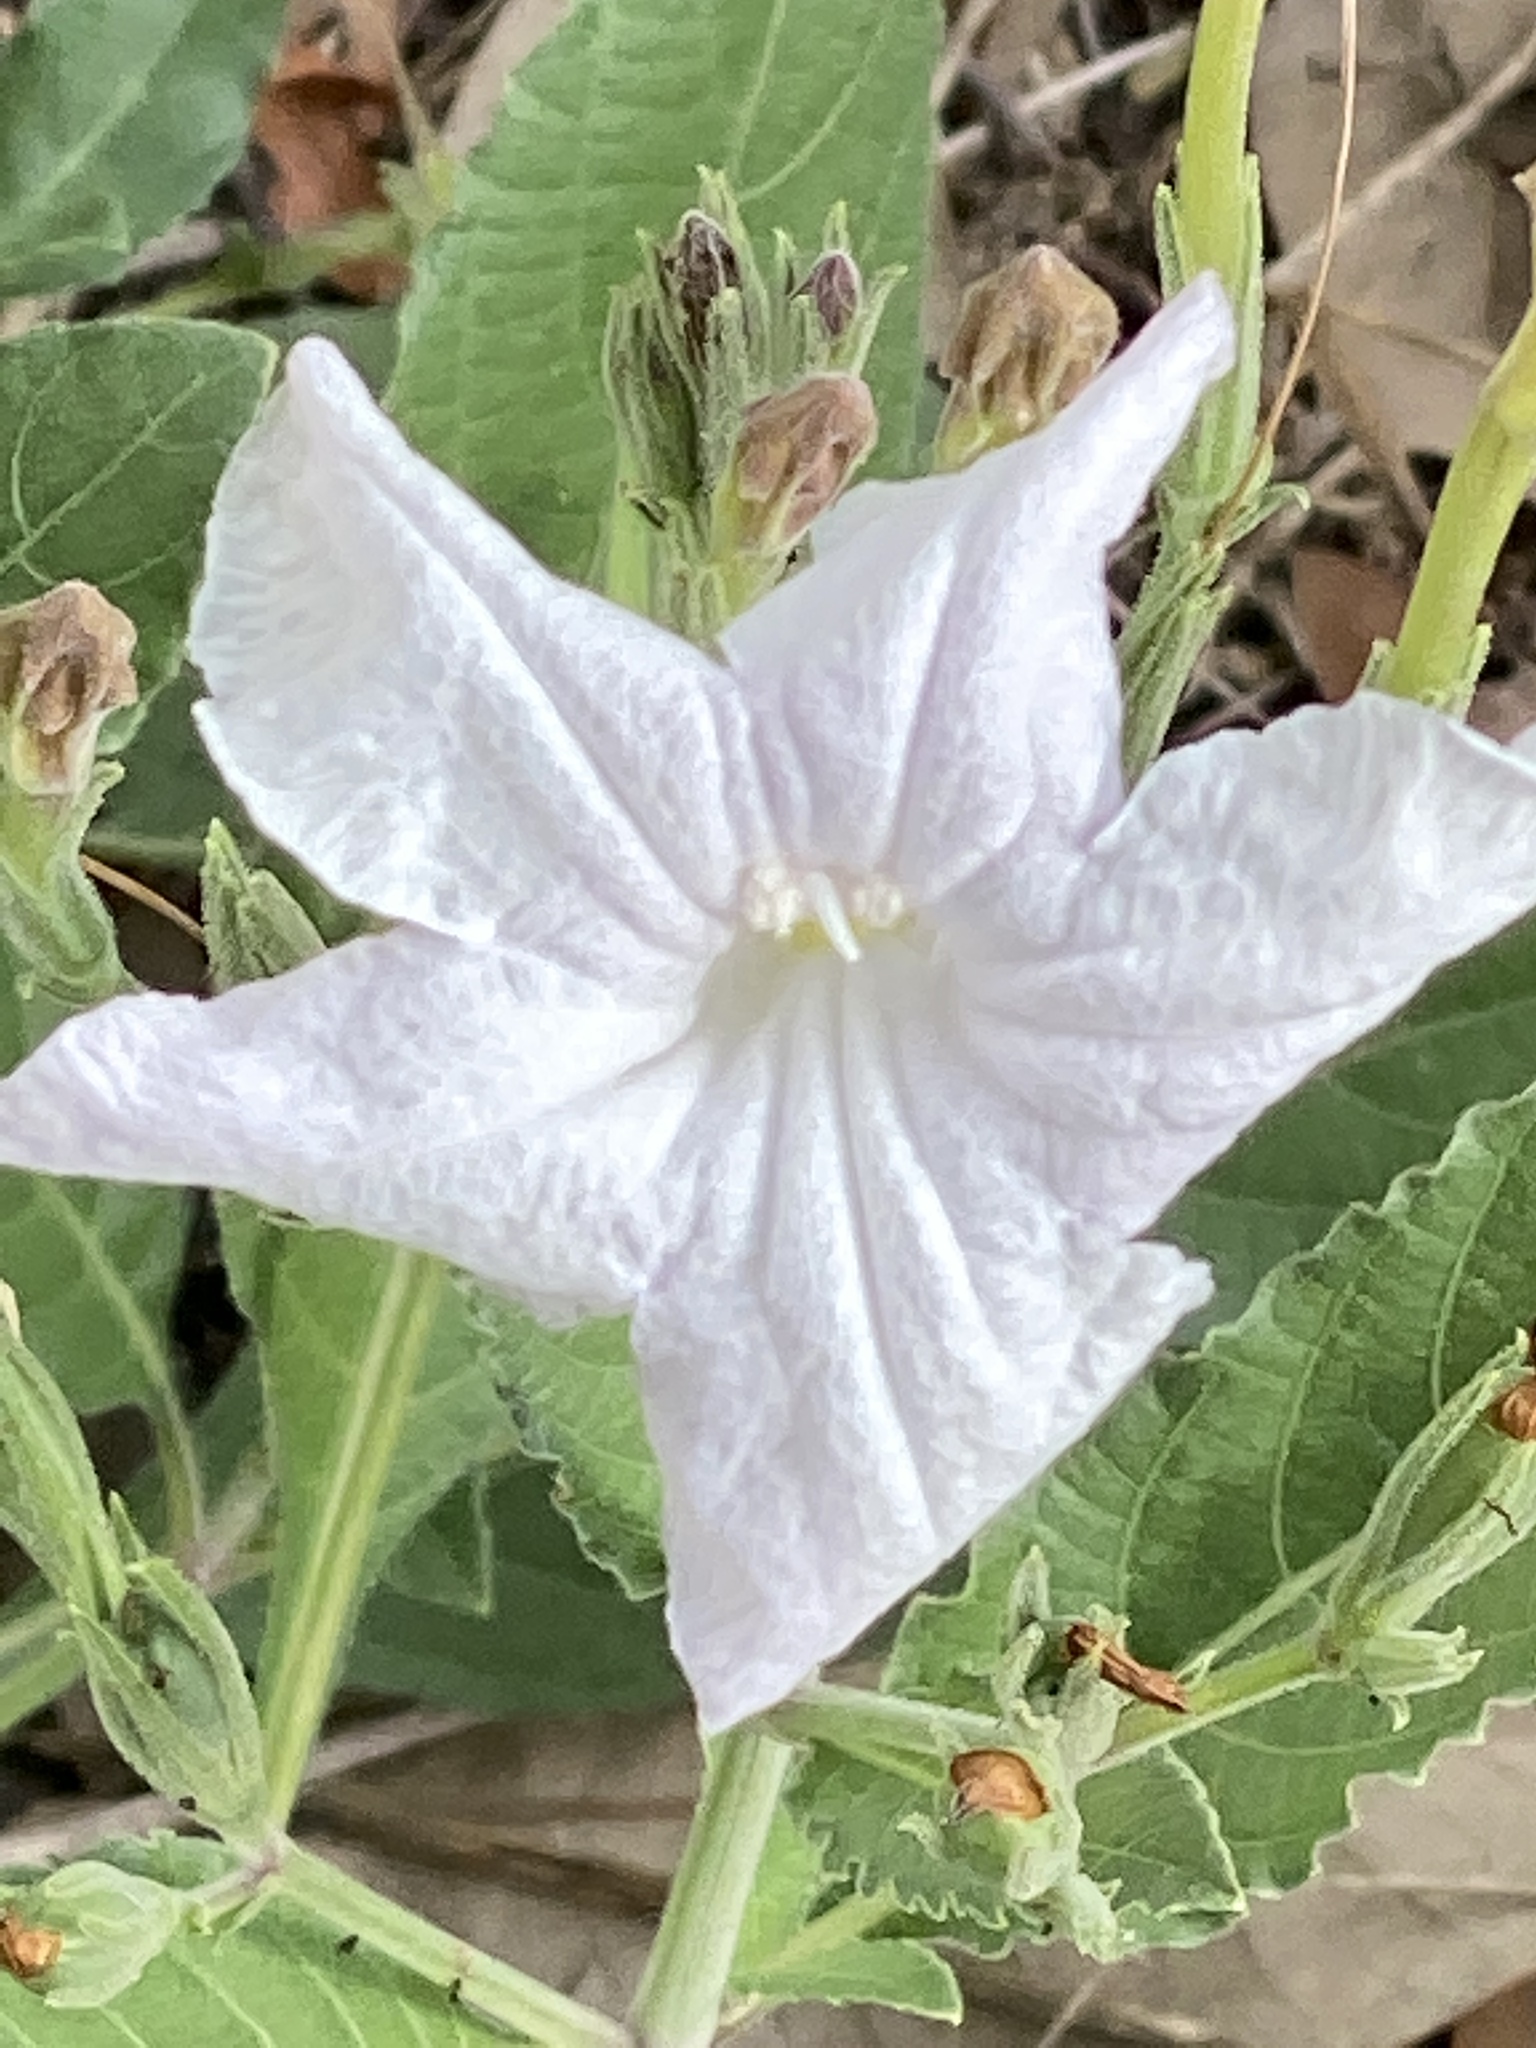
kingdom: Plantae
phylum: Tracheophyta
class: Magnoliopsida
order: Lamiales
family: Acanthaceae
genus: Ruellia
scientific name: Ruellia metziae
